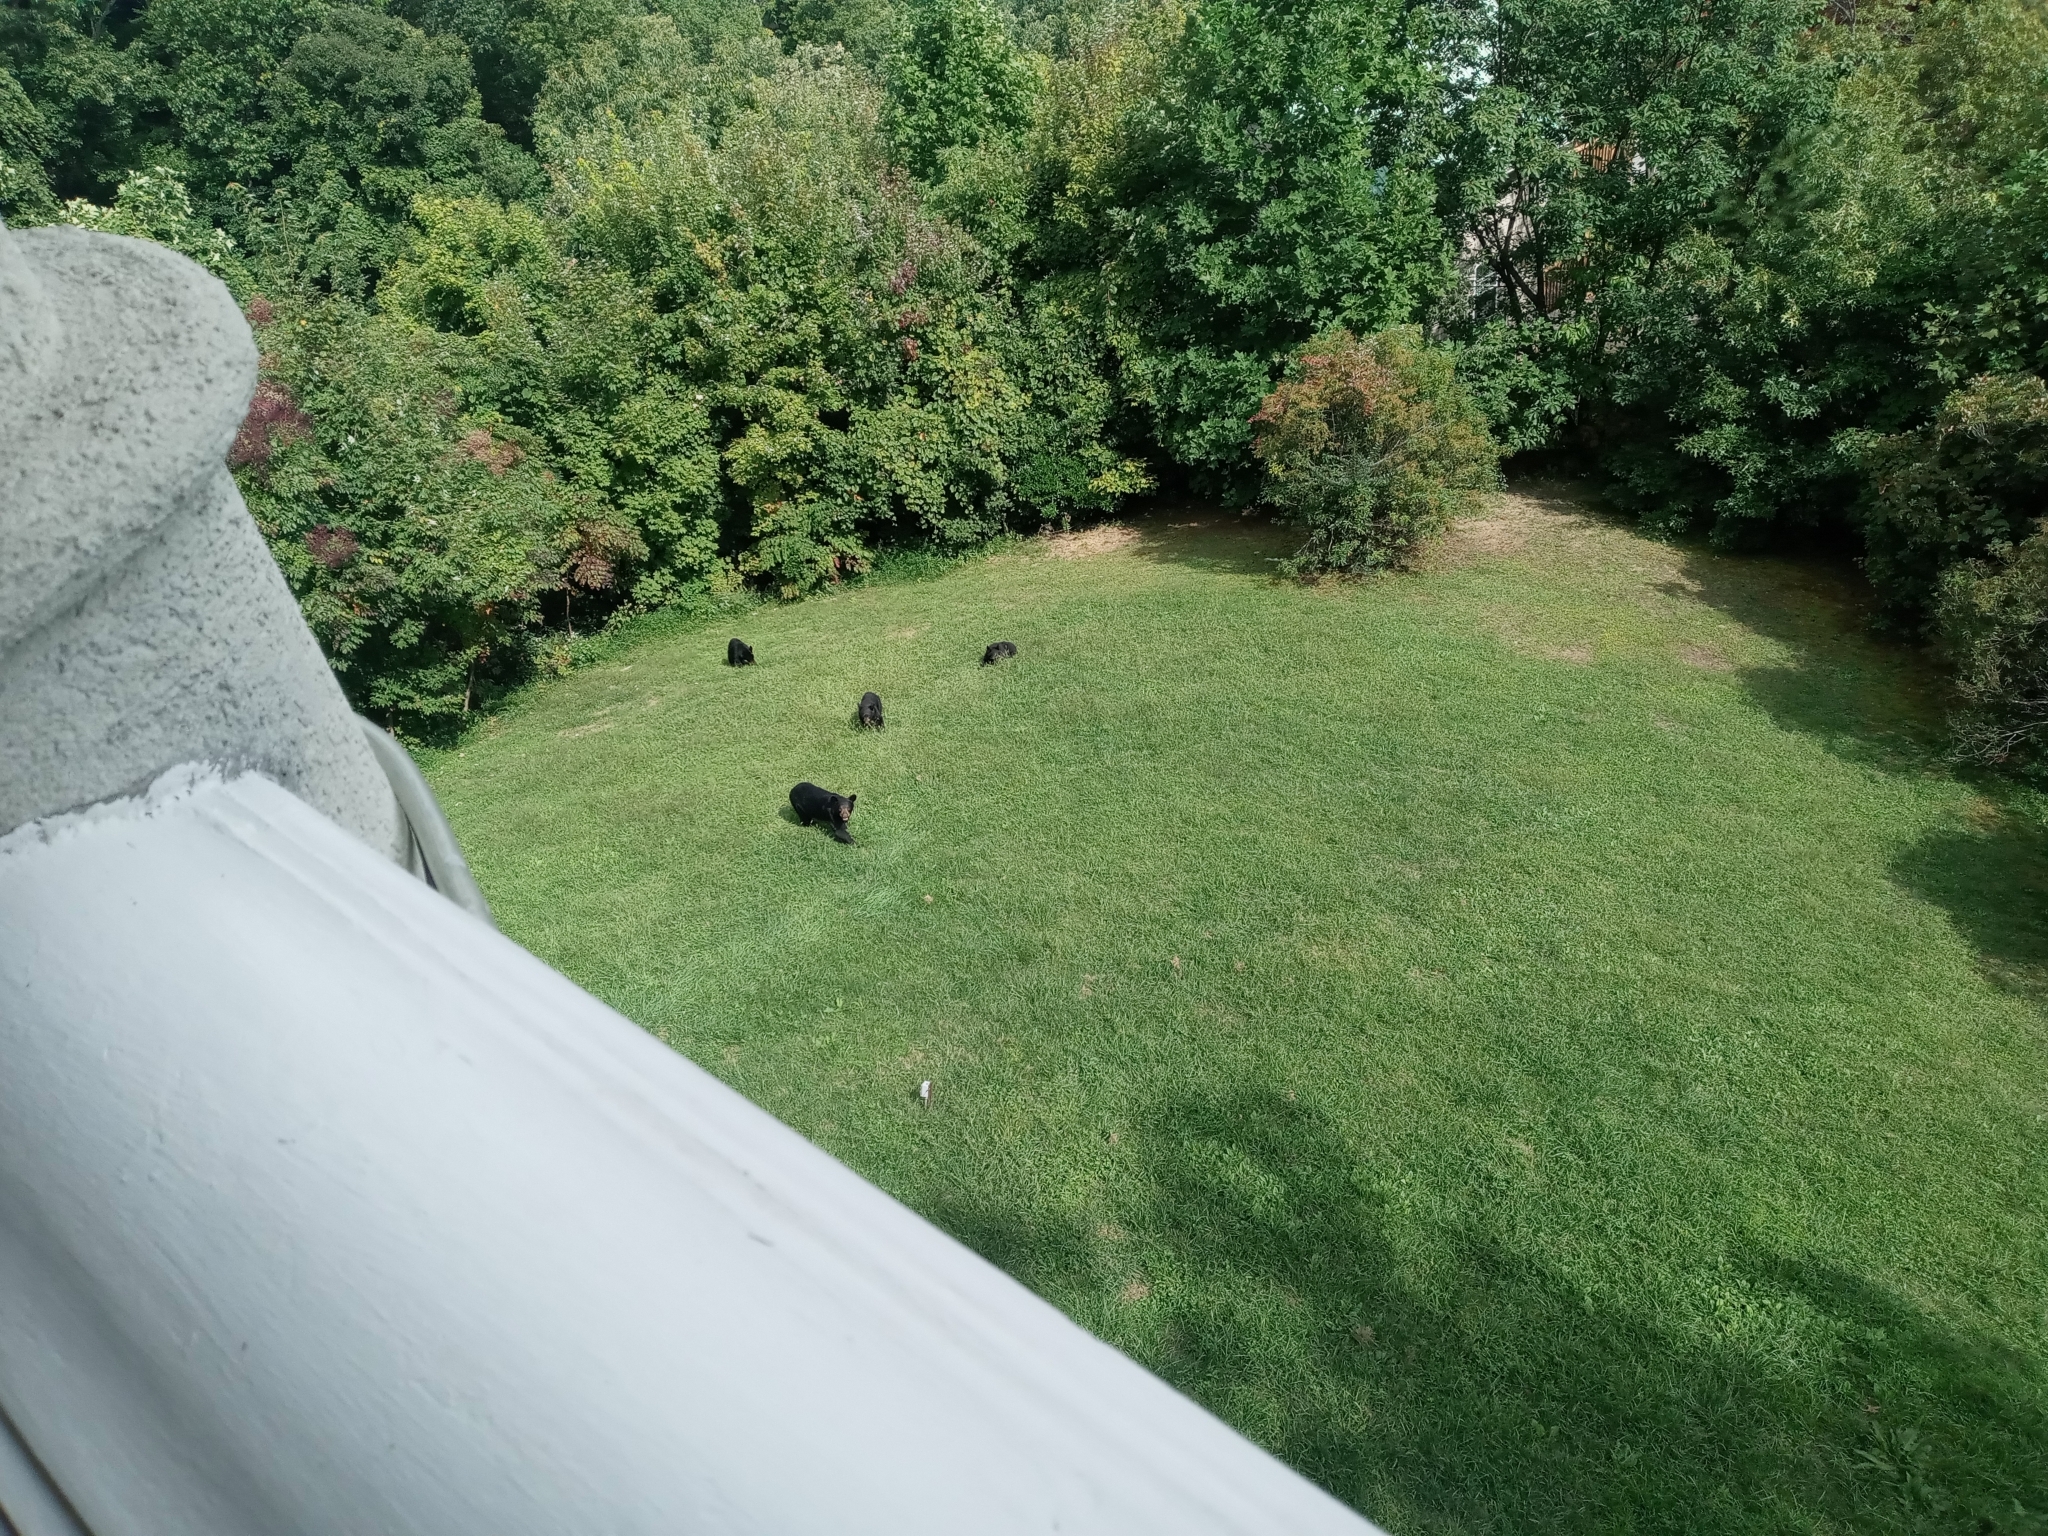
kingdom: Animalia
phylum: Chordata
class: Mammalia
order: Carnivora
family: Ursidae
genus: Ursus
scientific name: Ursus americanus
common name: American black bear
